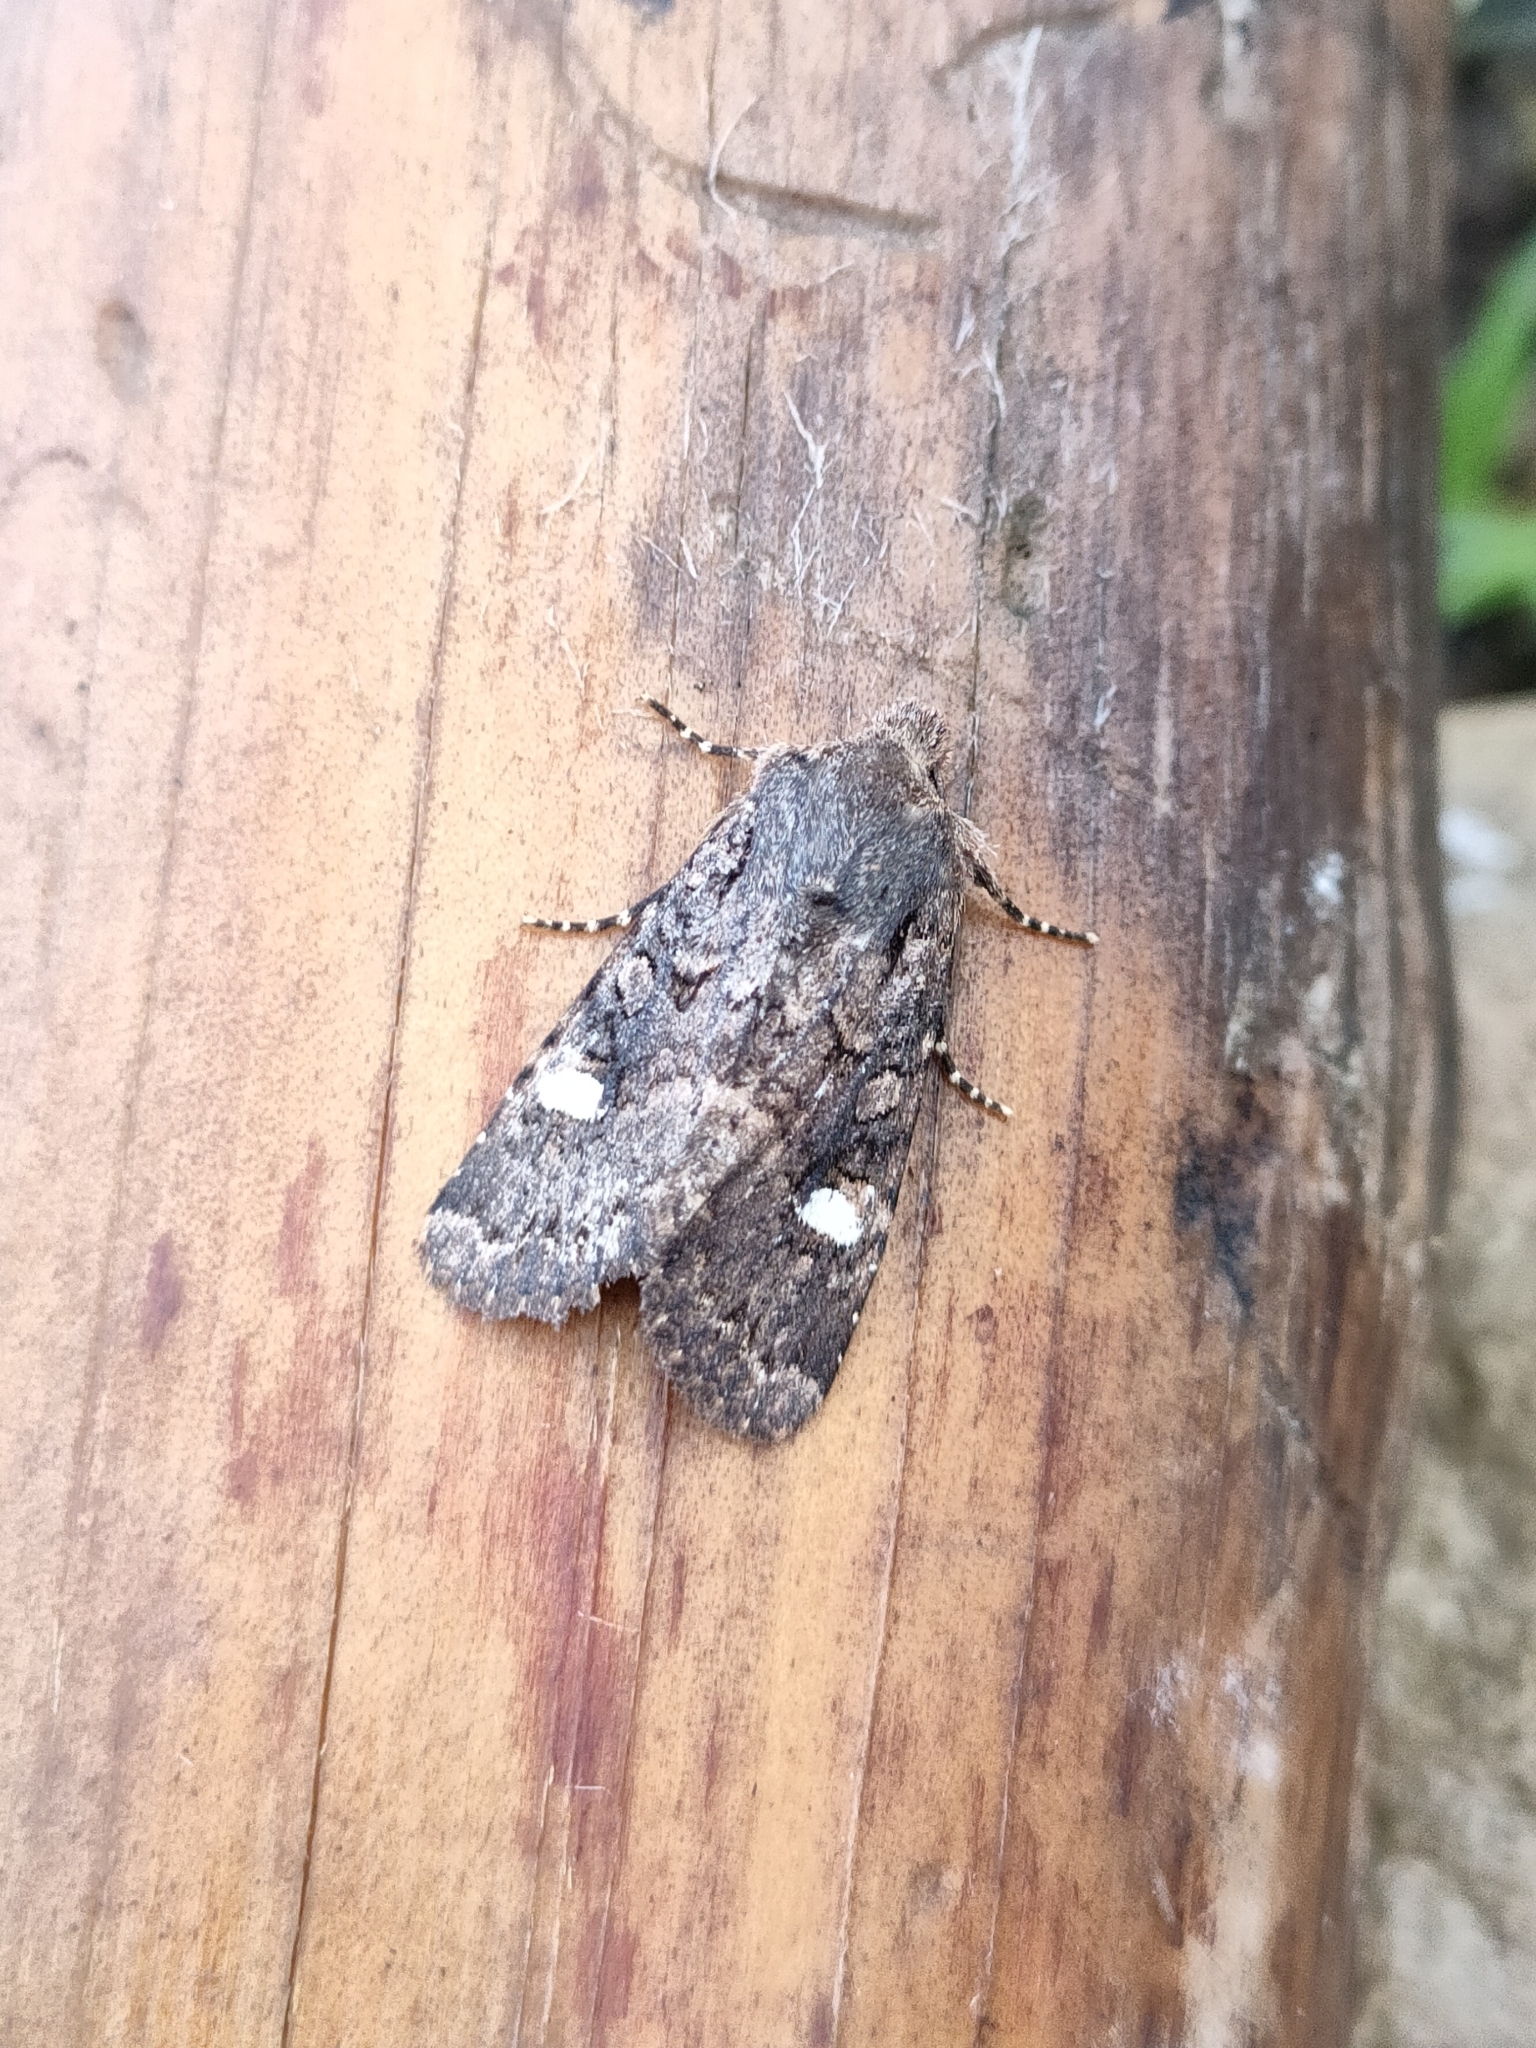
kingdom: Animalia
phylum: Arthropoda
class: Insecta
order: Lepidoptera
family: Noctuidae
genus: Dryobota
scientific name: Dryobota labecula
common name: Oak rustic
